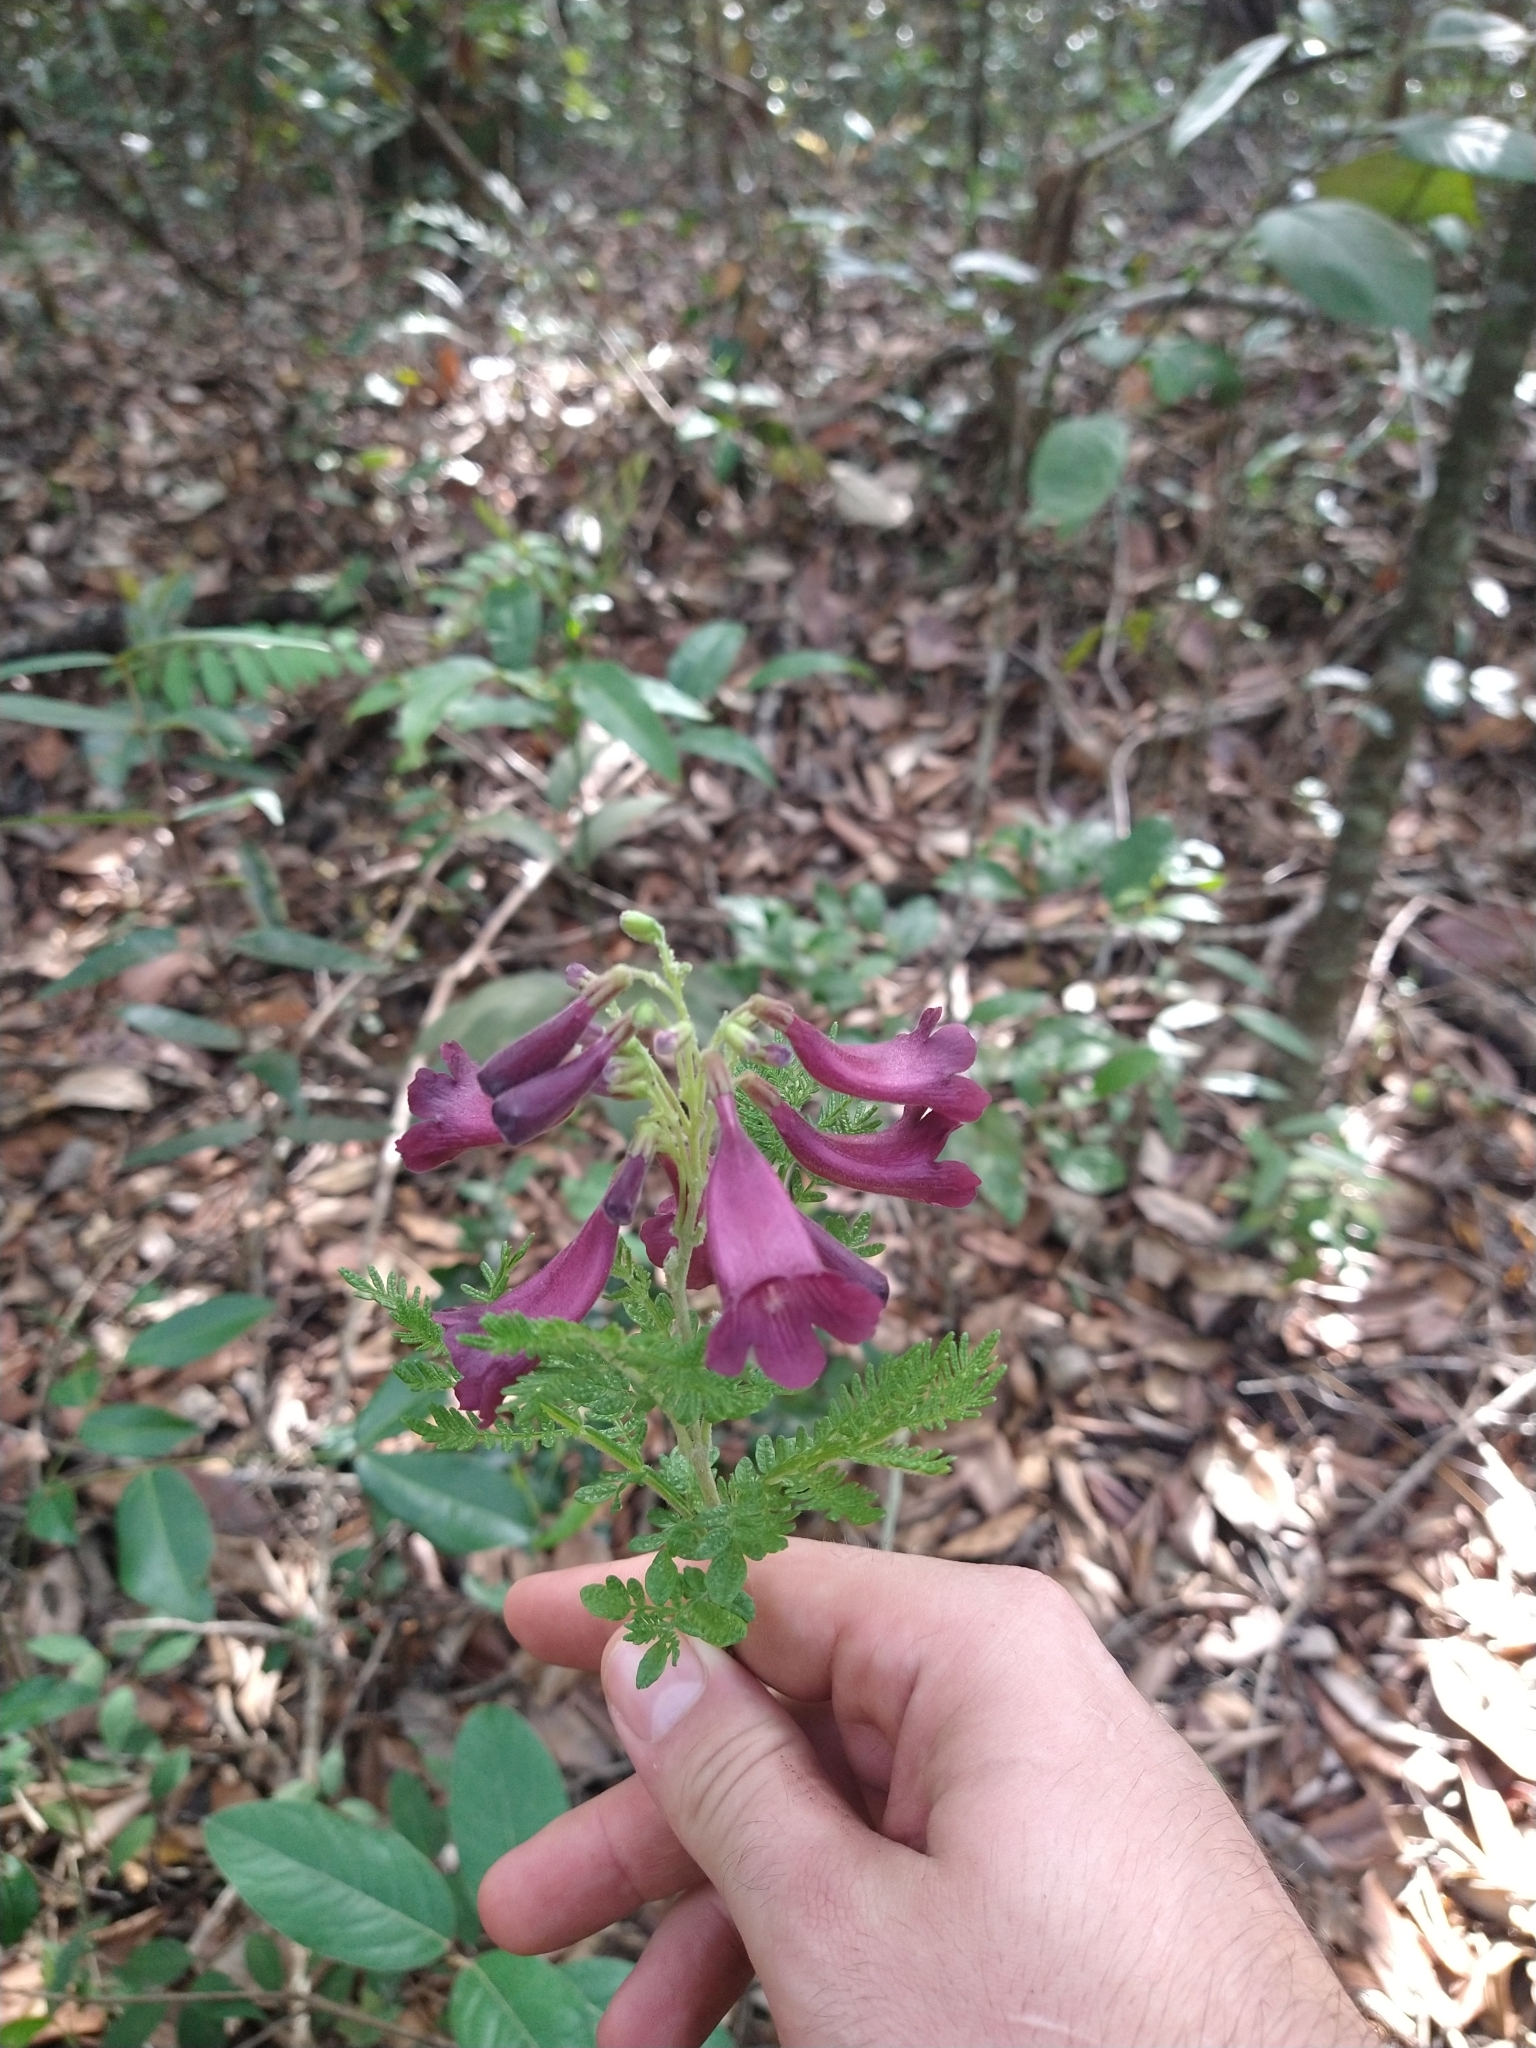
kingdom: Plantae
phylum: Tracheophyta
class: Magnoliopsida
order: Lamiales
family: Bignoniaceae
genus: Jacaranda
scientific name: Jacaranda ulei
